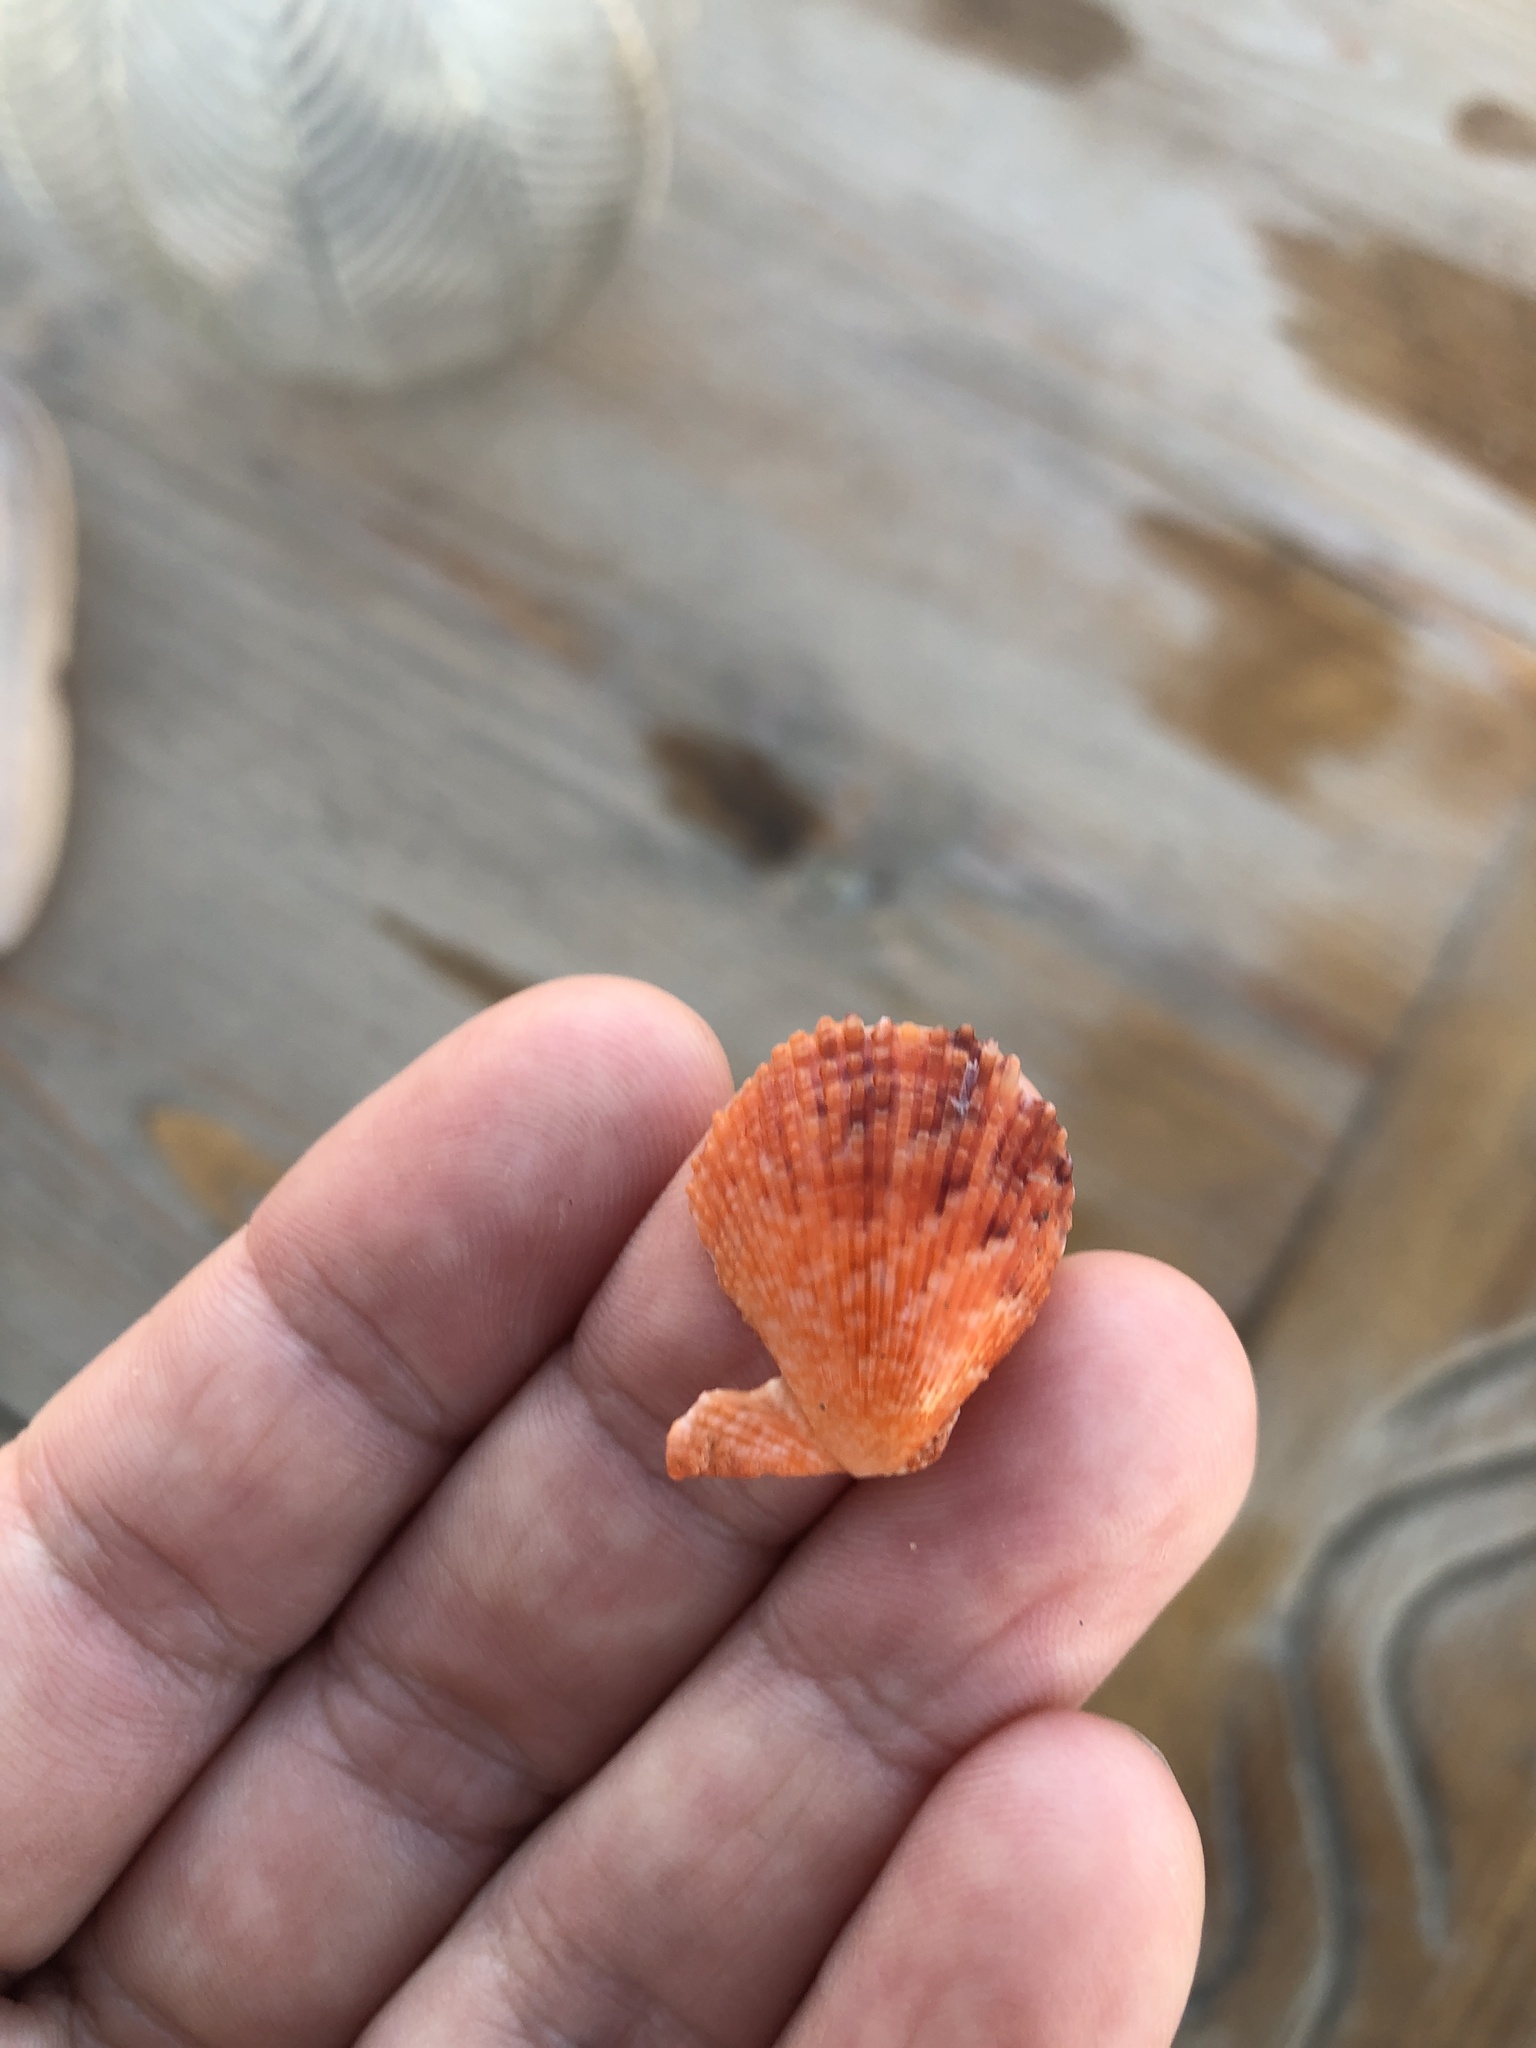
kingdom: Animalia
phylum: Mollusca
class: Bivalvia
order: Pectinida
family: Pectinidae
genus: Mimachlamys
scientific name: Mimachlamys varia
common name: Variegated scallop
